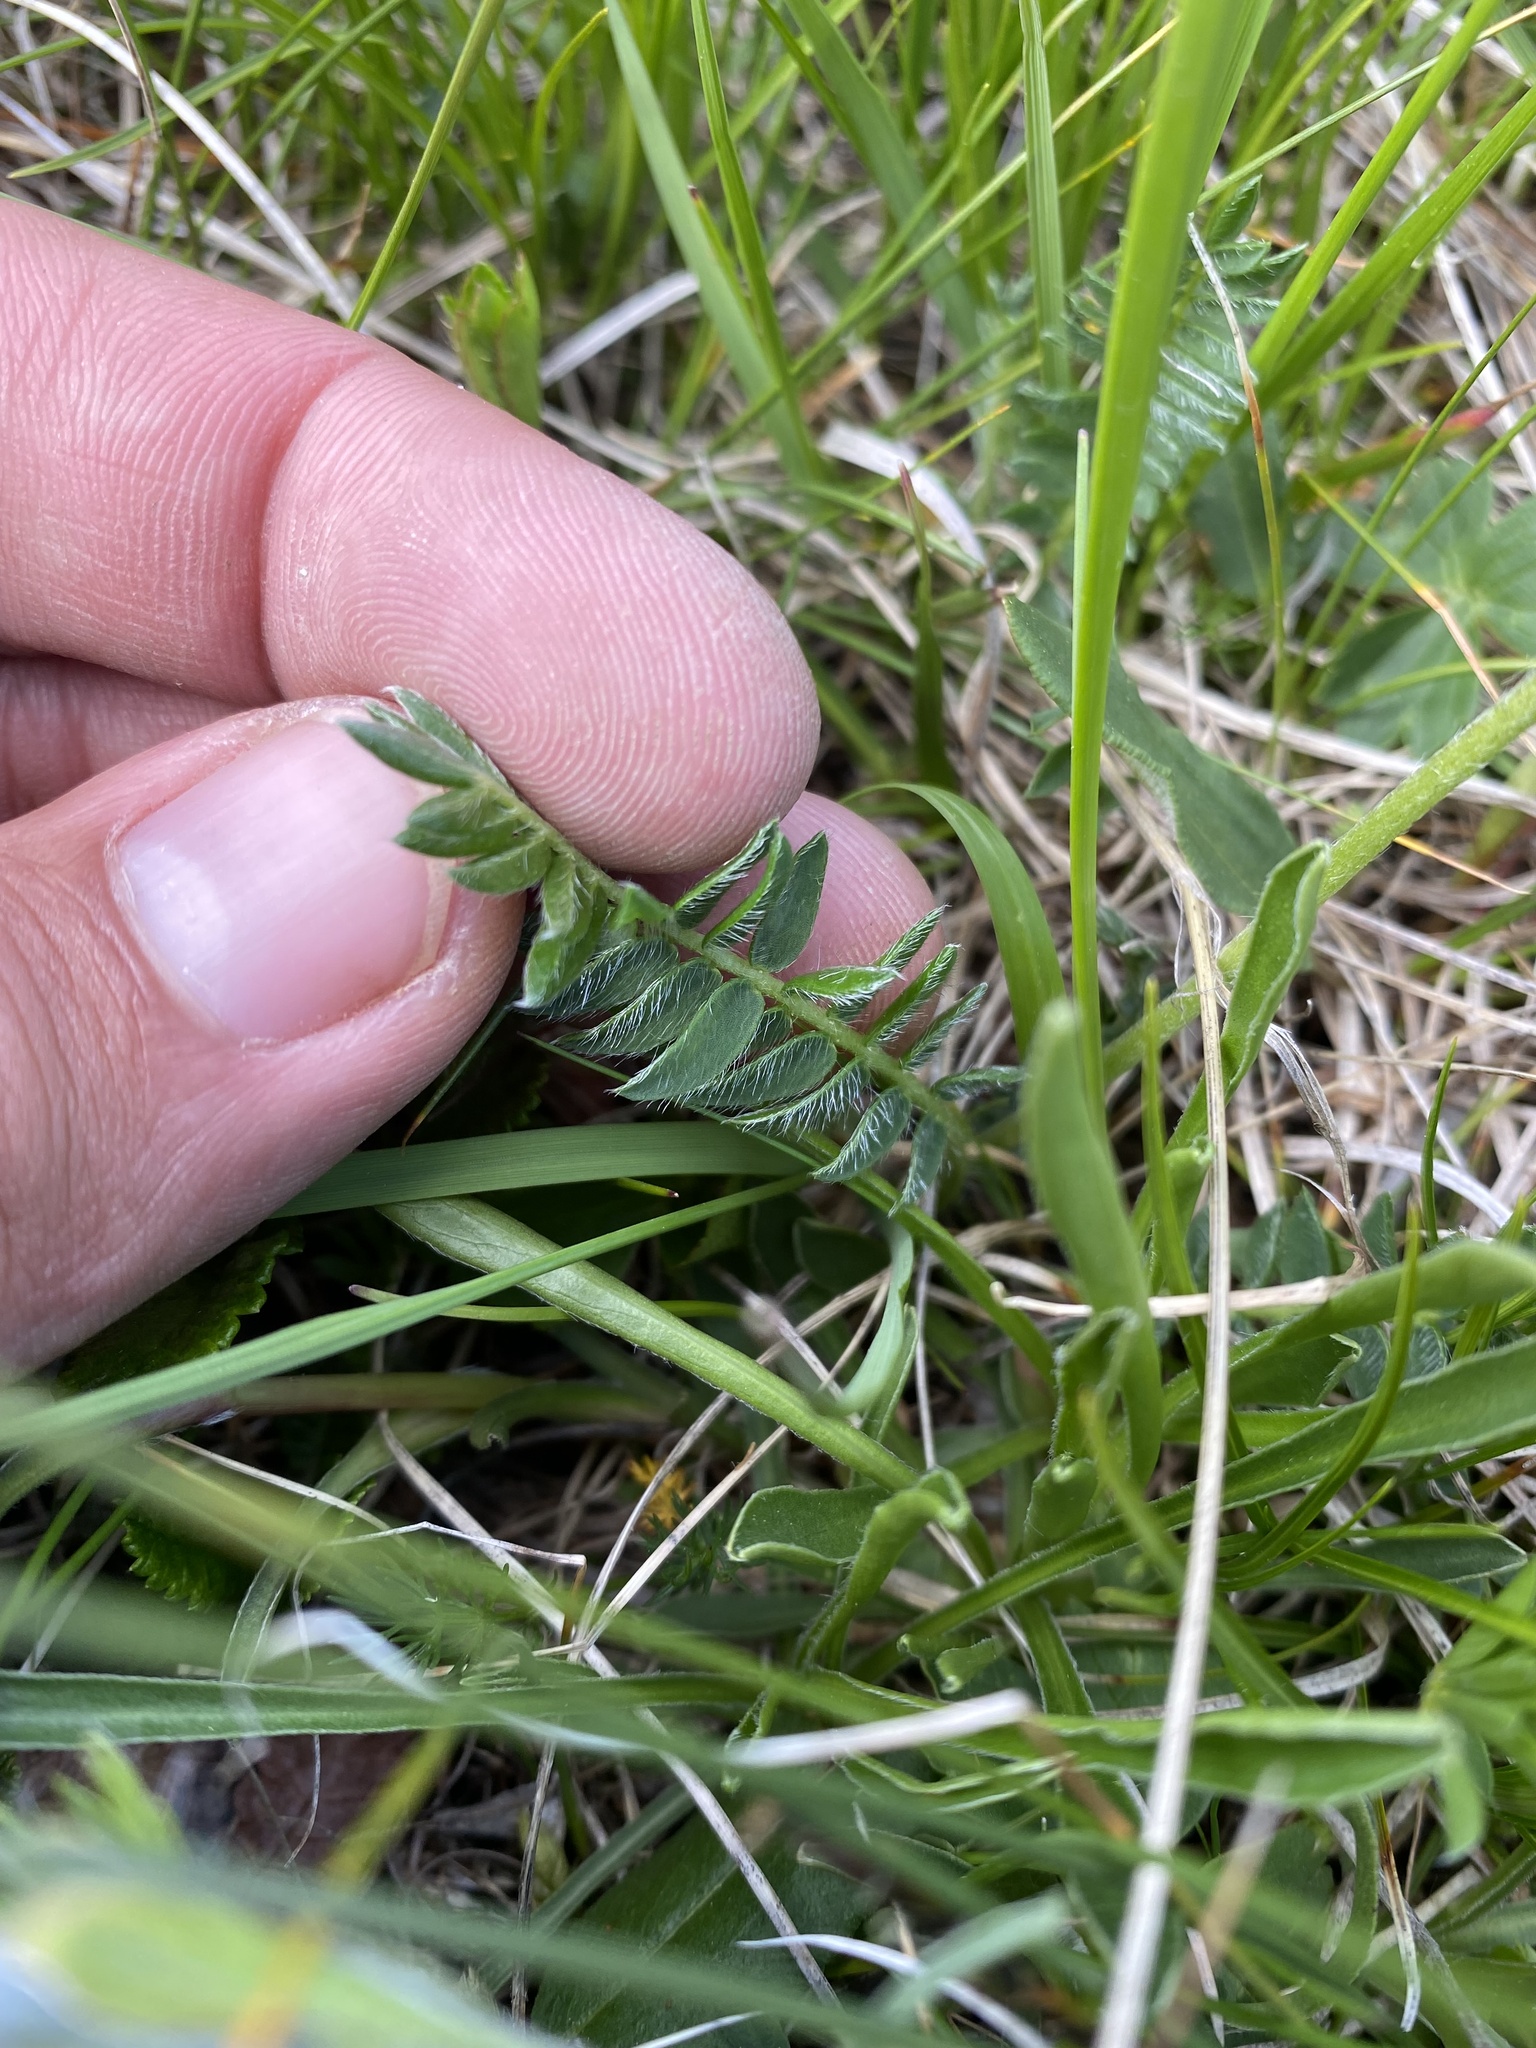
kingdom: Plantae
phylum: Tracheophyta
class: Magnoliopsida
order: Fabales
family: Fabaceae
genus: Oxytropis
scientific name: Oxytropis lazica
